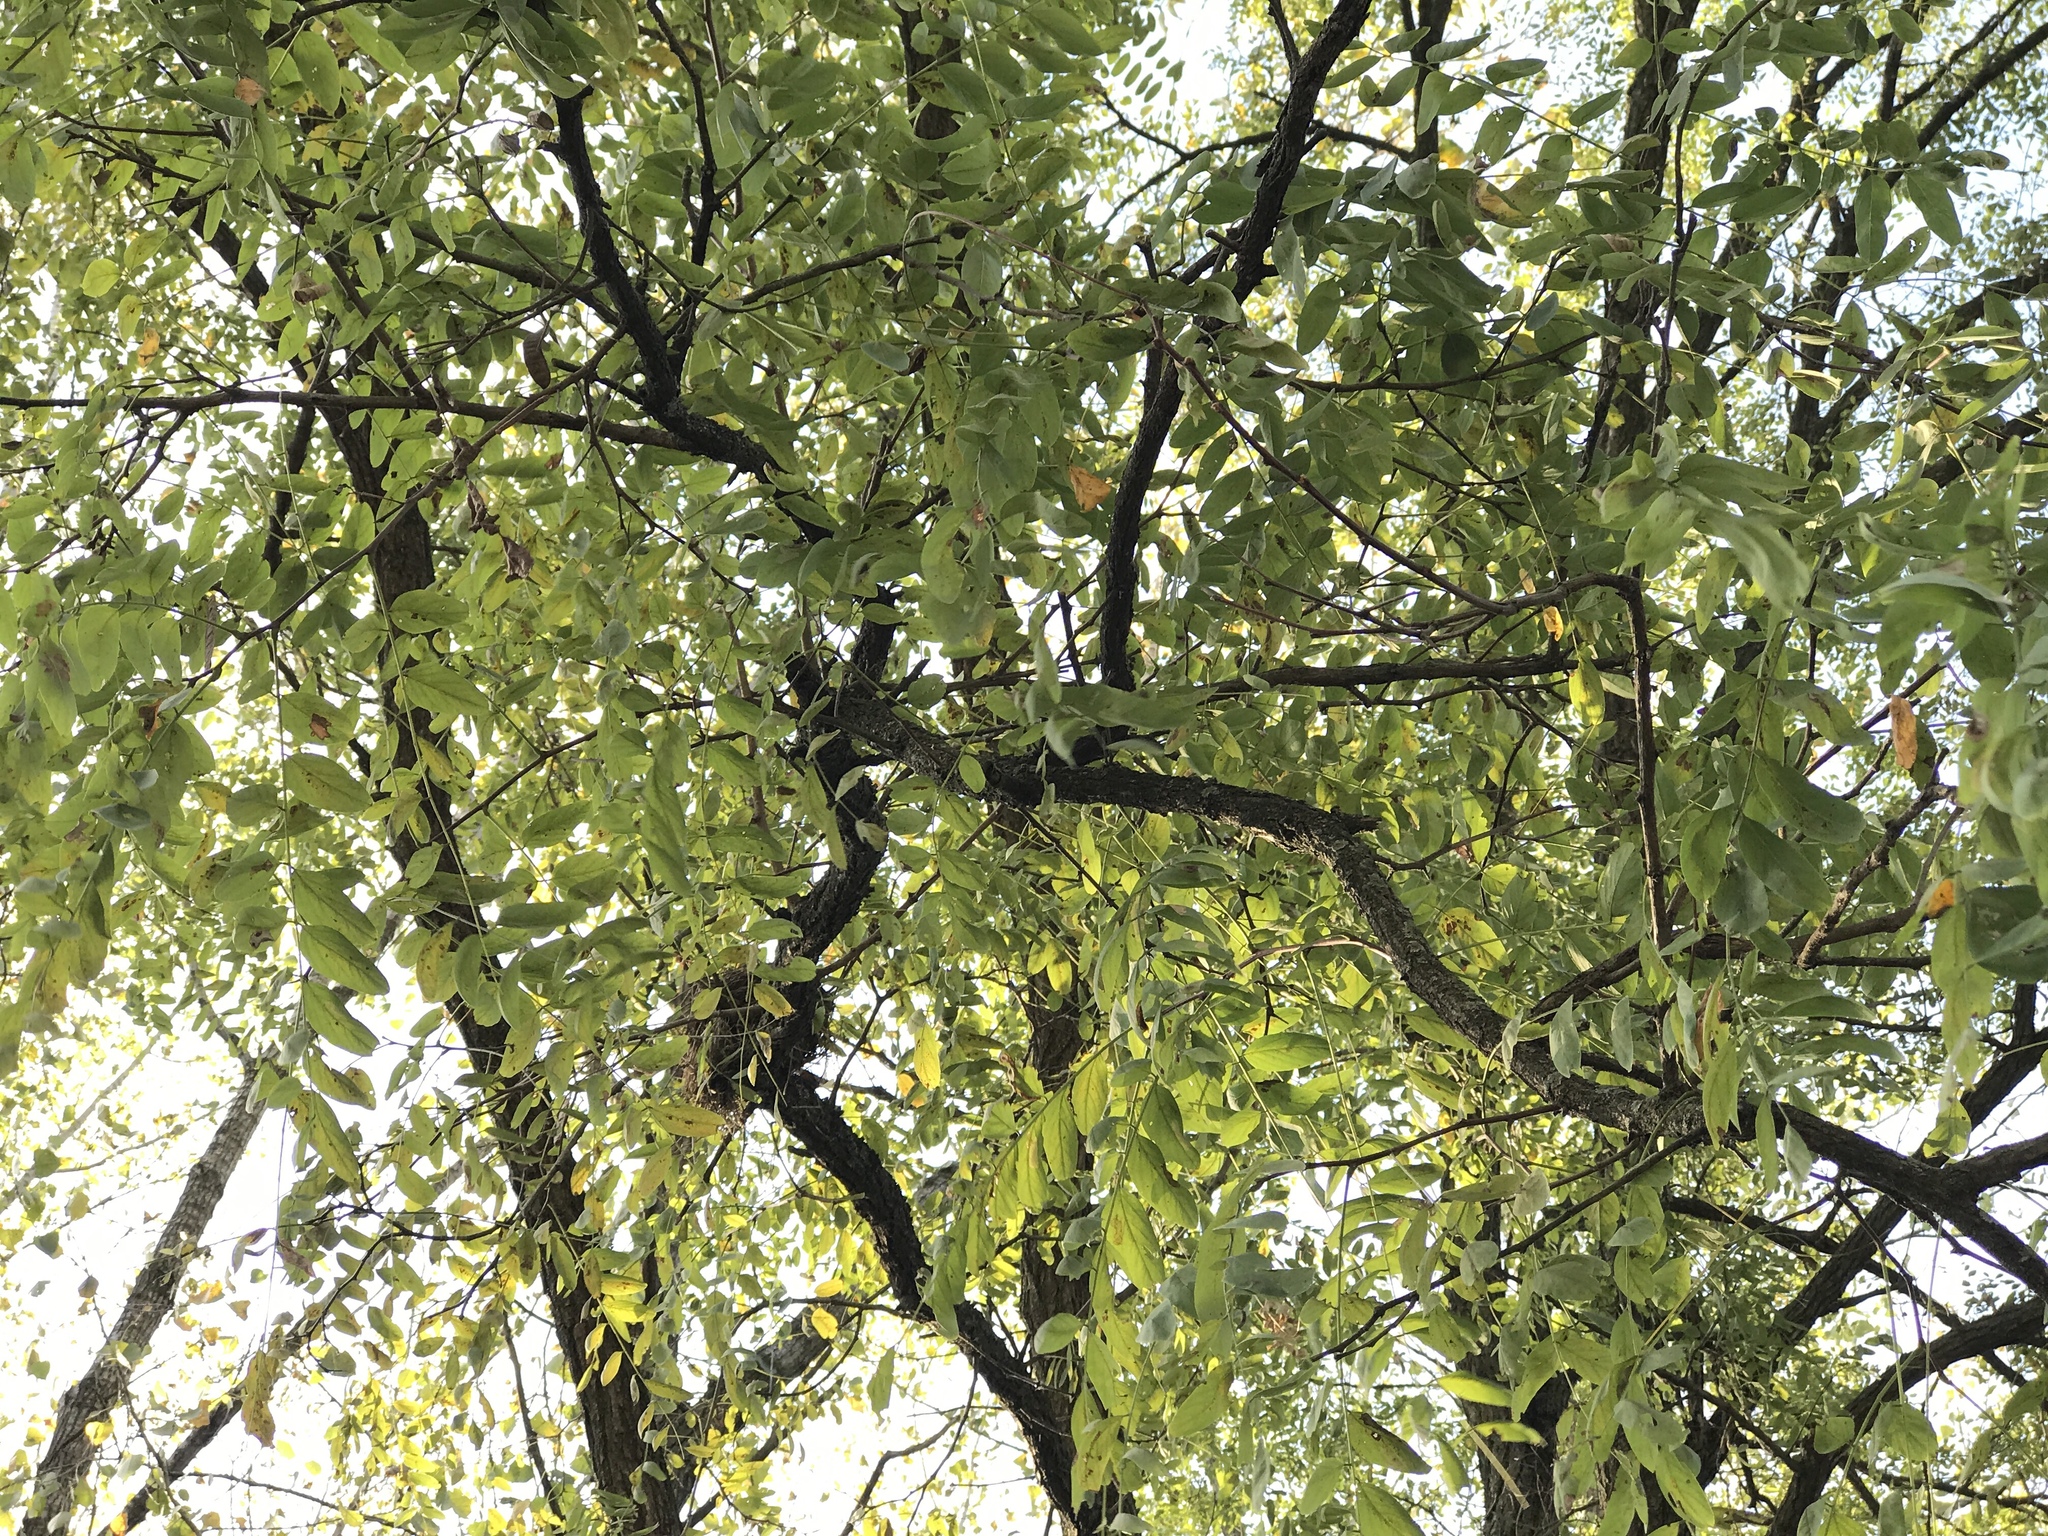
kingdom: Plantae
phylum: Tracheophyta
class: Magnoliopsida
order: Fabales
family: Fabaceae
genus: Robinia
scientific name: Robinia pseudoacacia
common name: Black locust
